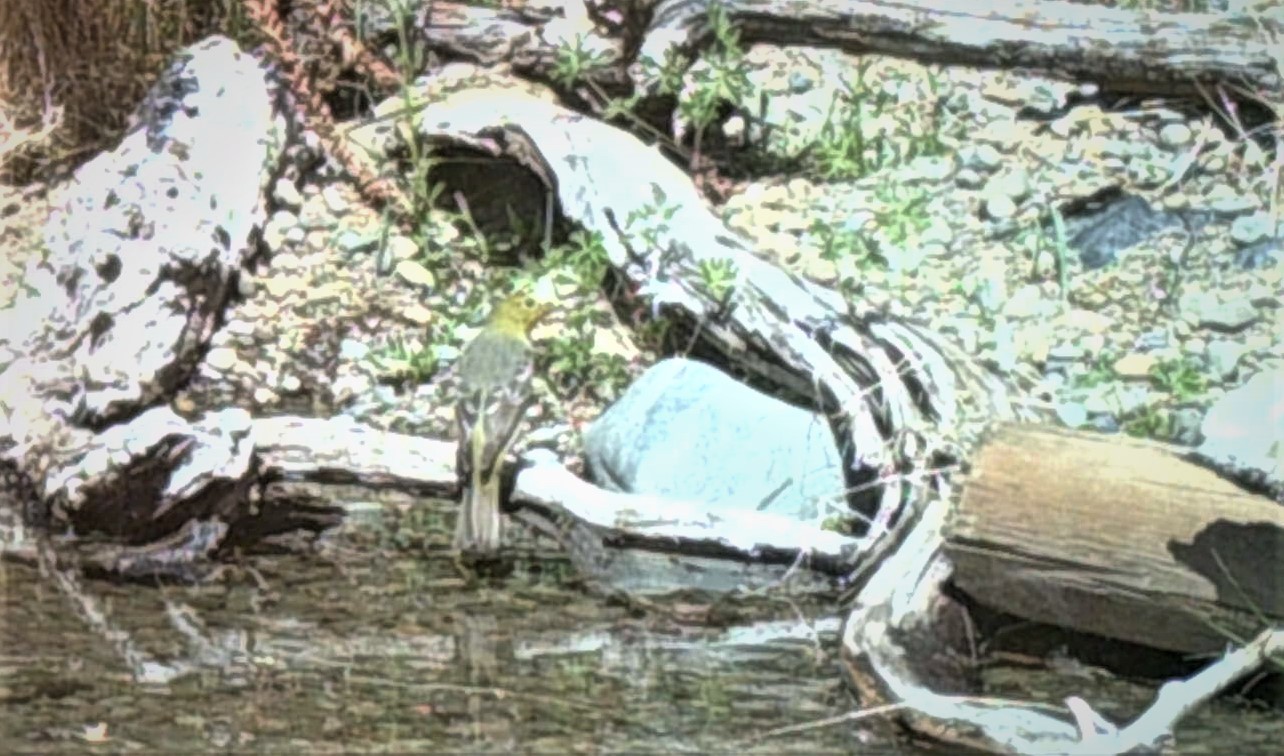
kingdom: Animalia
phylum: Chordata
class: Aves
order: Passeriformes
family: Cardinalidae
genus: Piranga
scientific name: Piranga ludoviciana
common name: Western tanager
